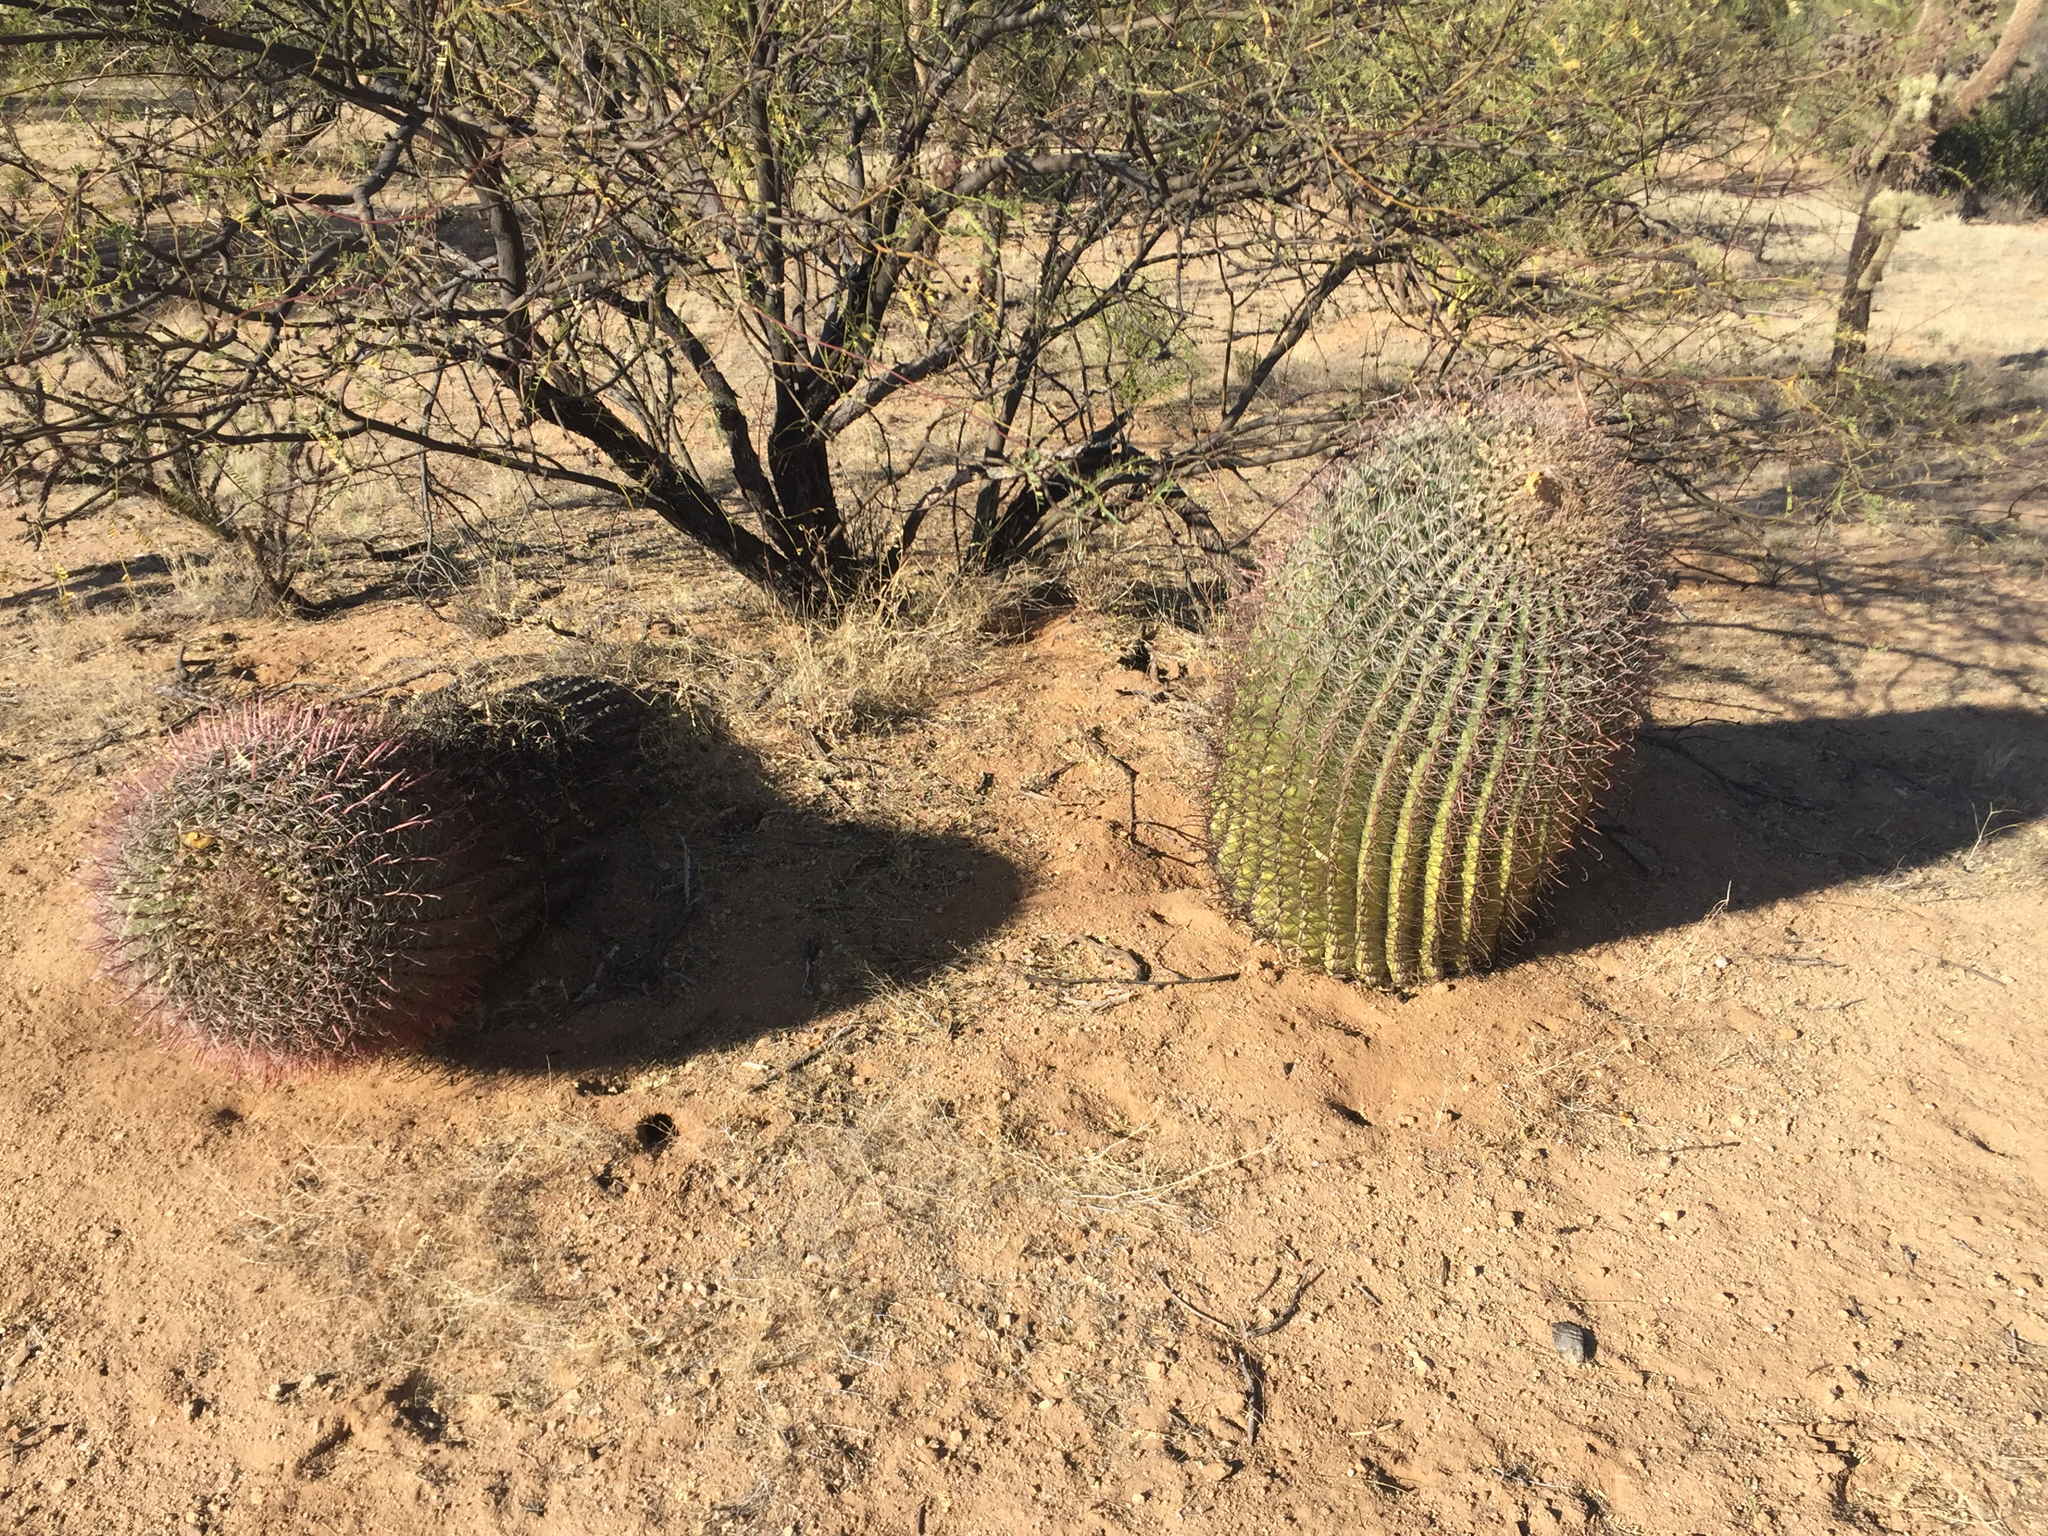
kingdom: Plantae
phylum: Tracheophyta
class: Magnoliopsida
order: Caryophyllales
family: Cactaceae
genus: Ferocactus
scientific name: Ferocactus wislizeni
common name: Candy barrel cactus
